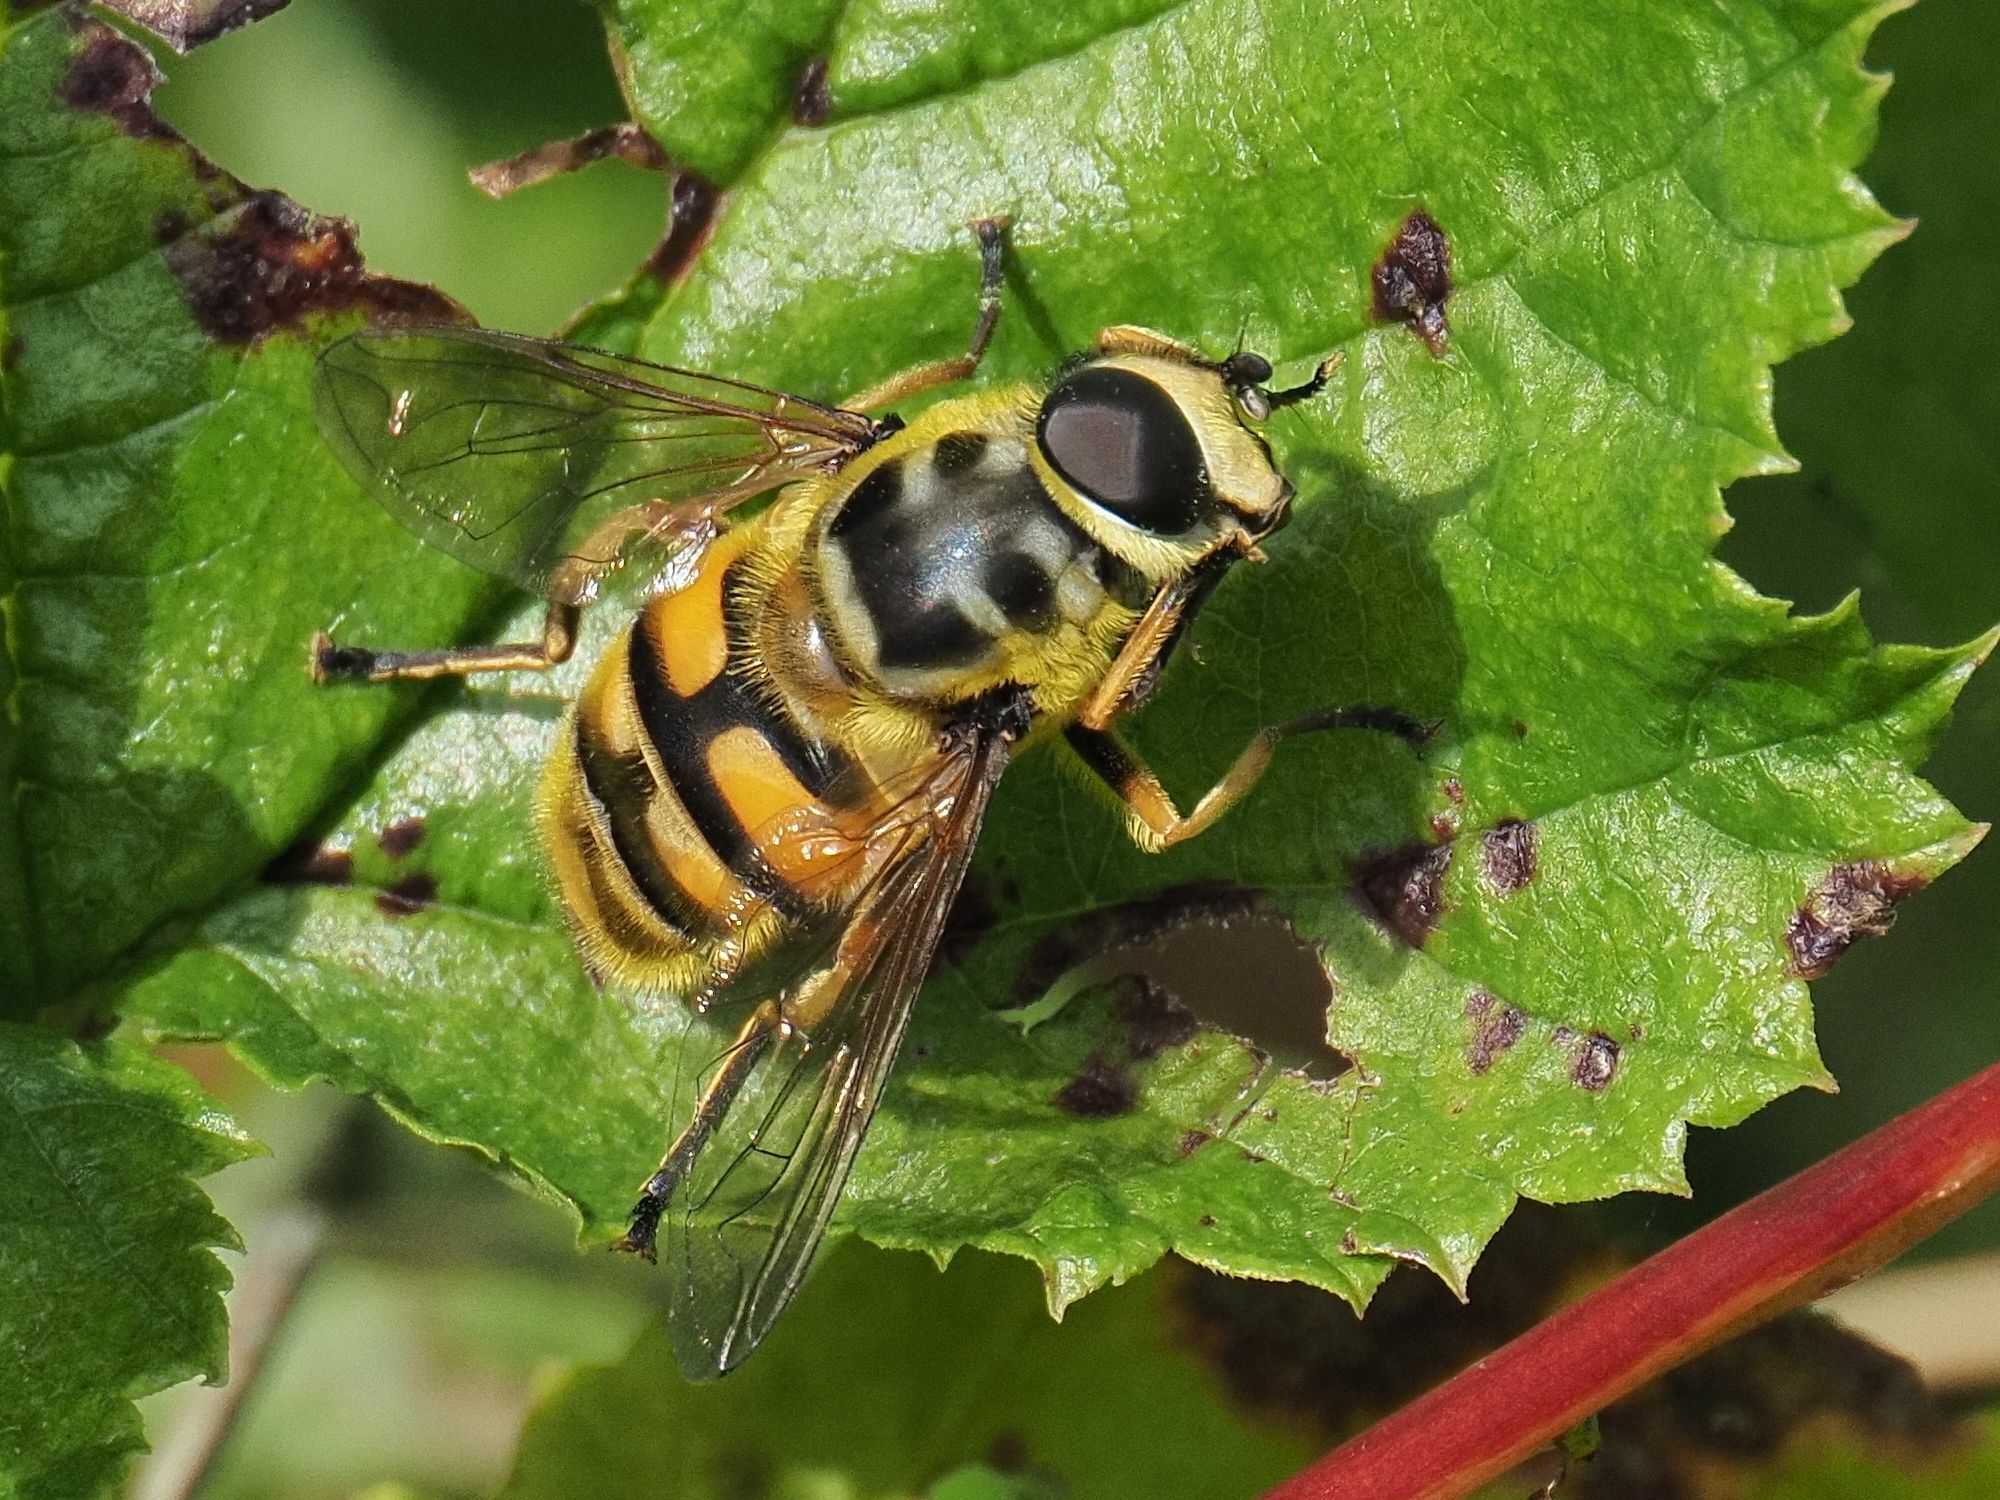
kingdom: Animalia
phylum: Arthropoda
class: Insecta
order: Diptera
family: Syrphidae
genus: Myathropa
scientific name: Myathropa florea
